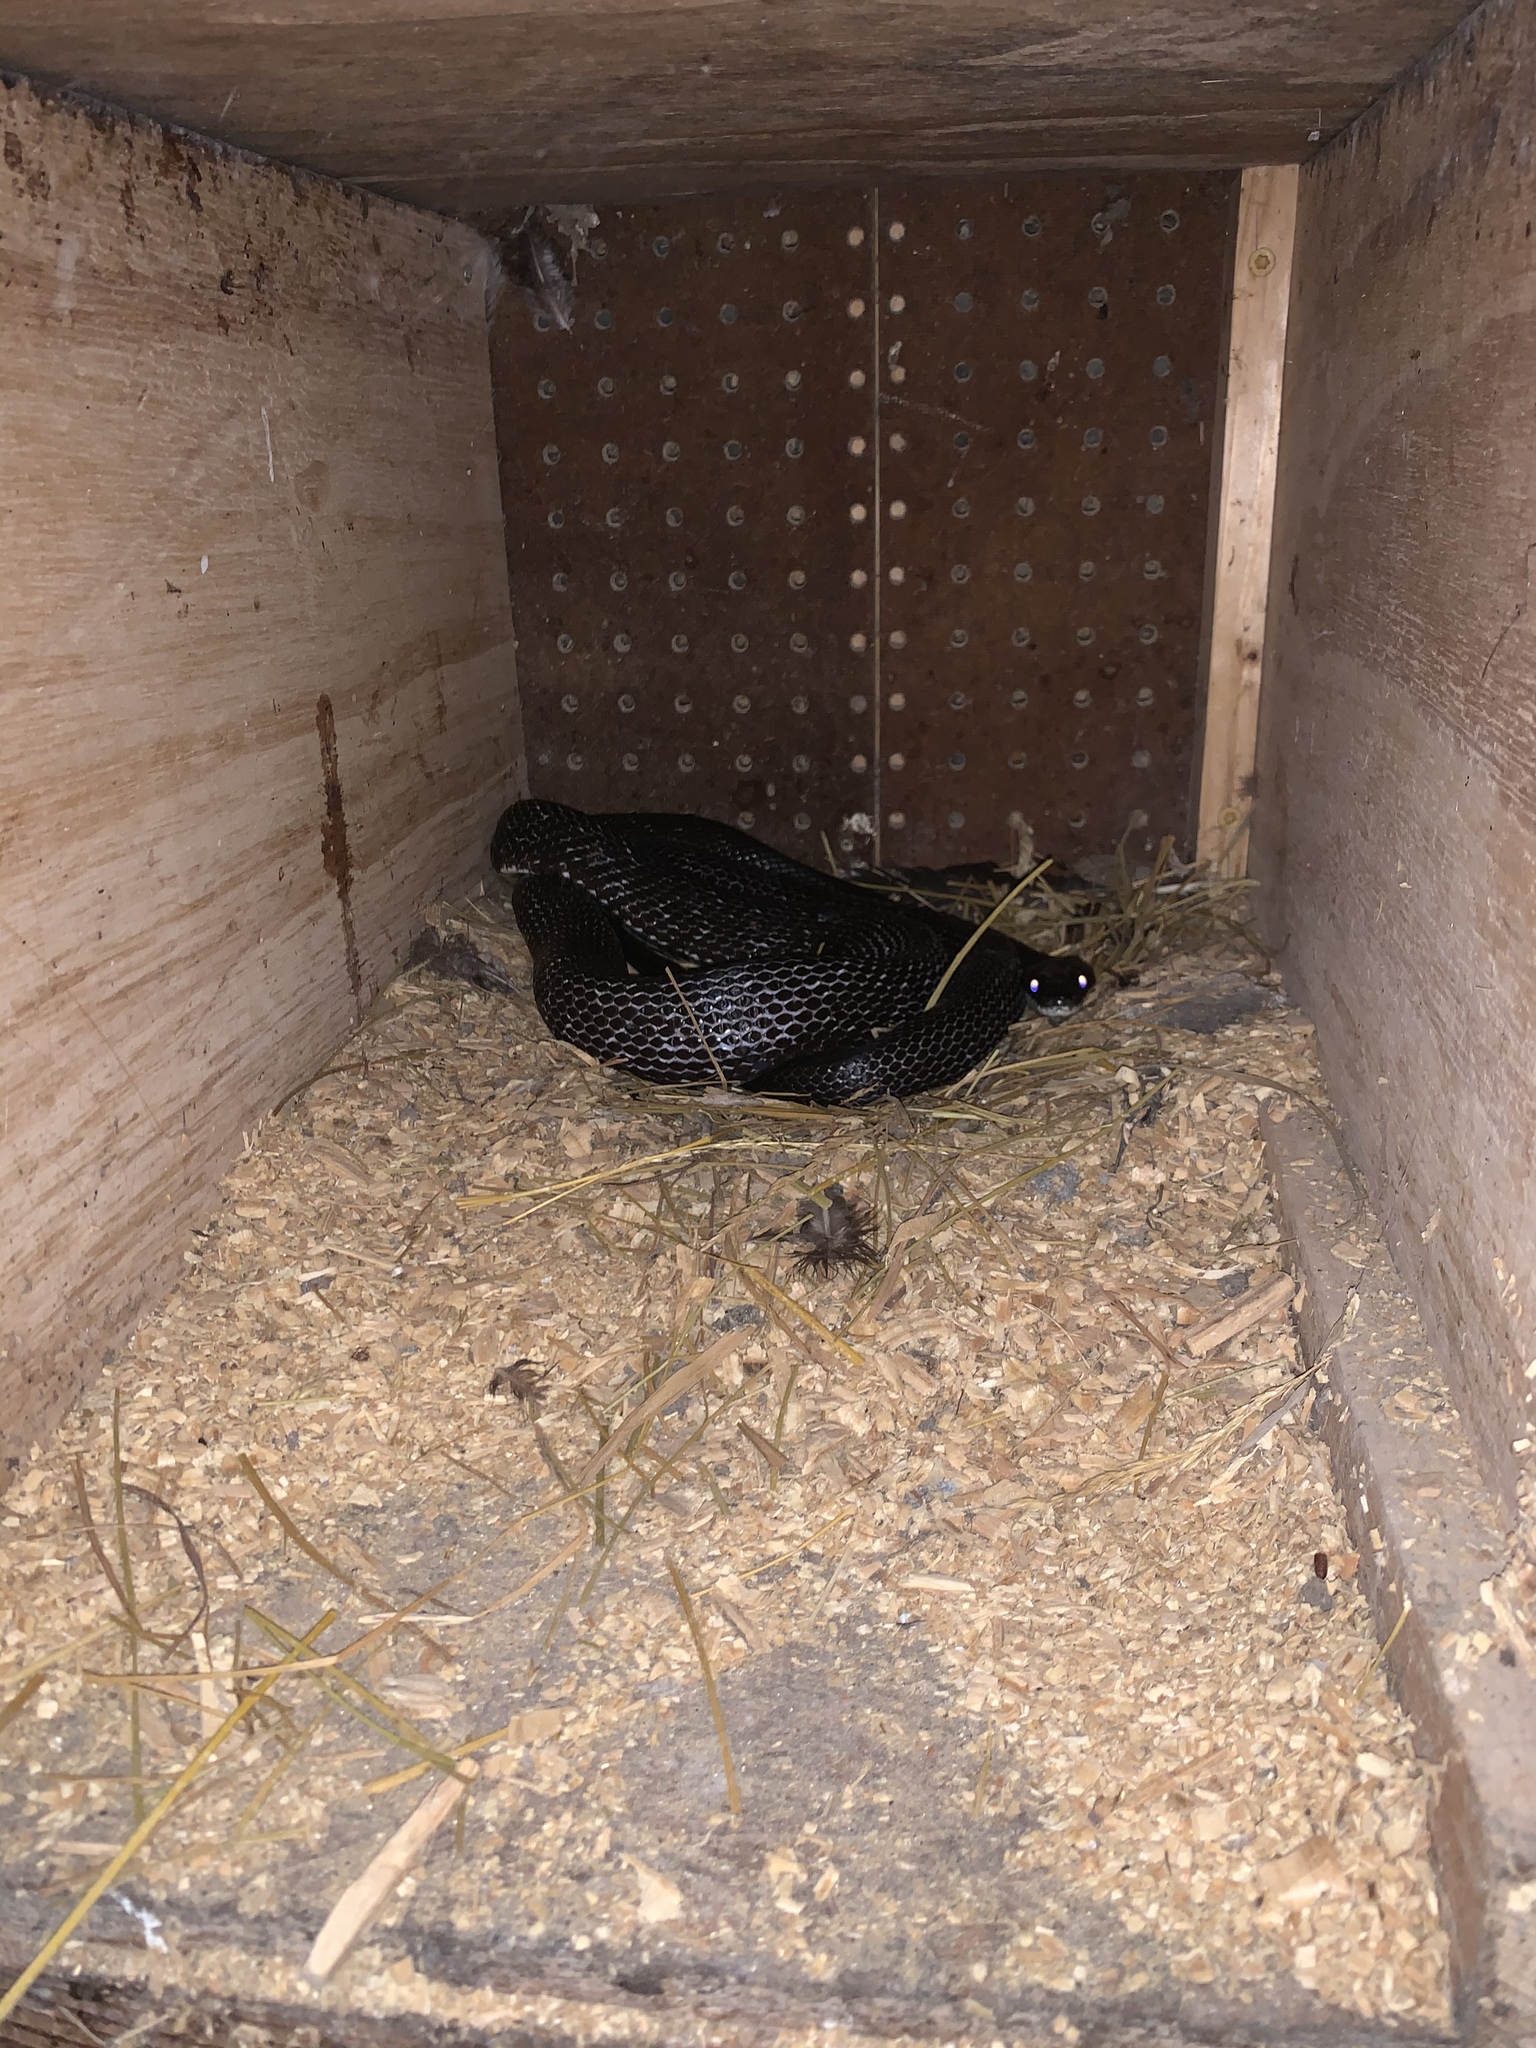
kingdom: Animalia
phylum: Chordata
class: Squamata
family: Colubridae
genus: Pantherophis
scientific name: Pantherophis alleghaniensis
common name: Eastern rat snake
